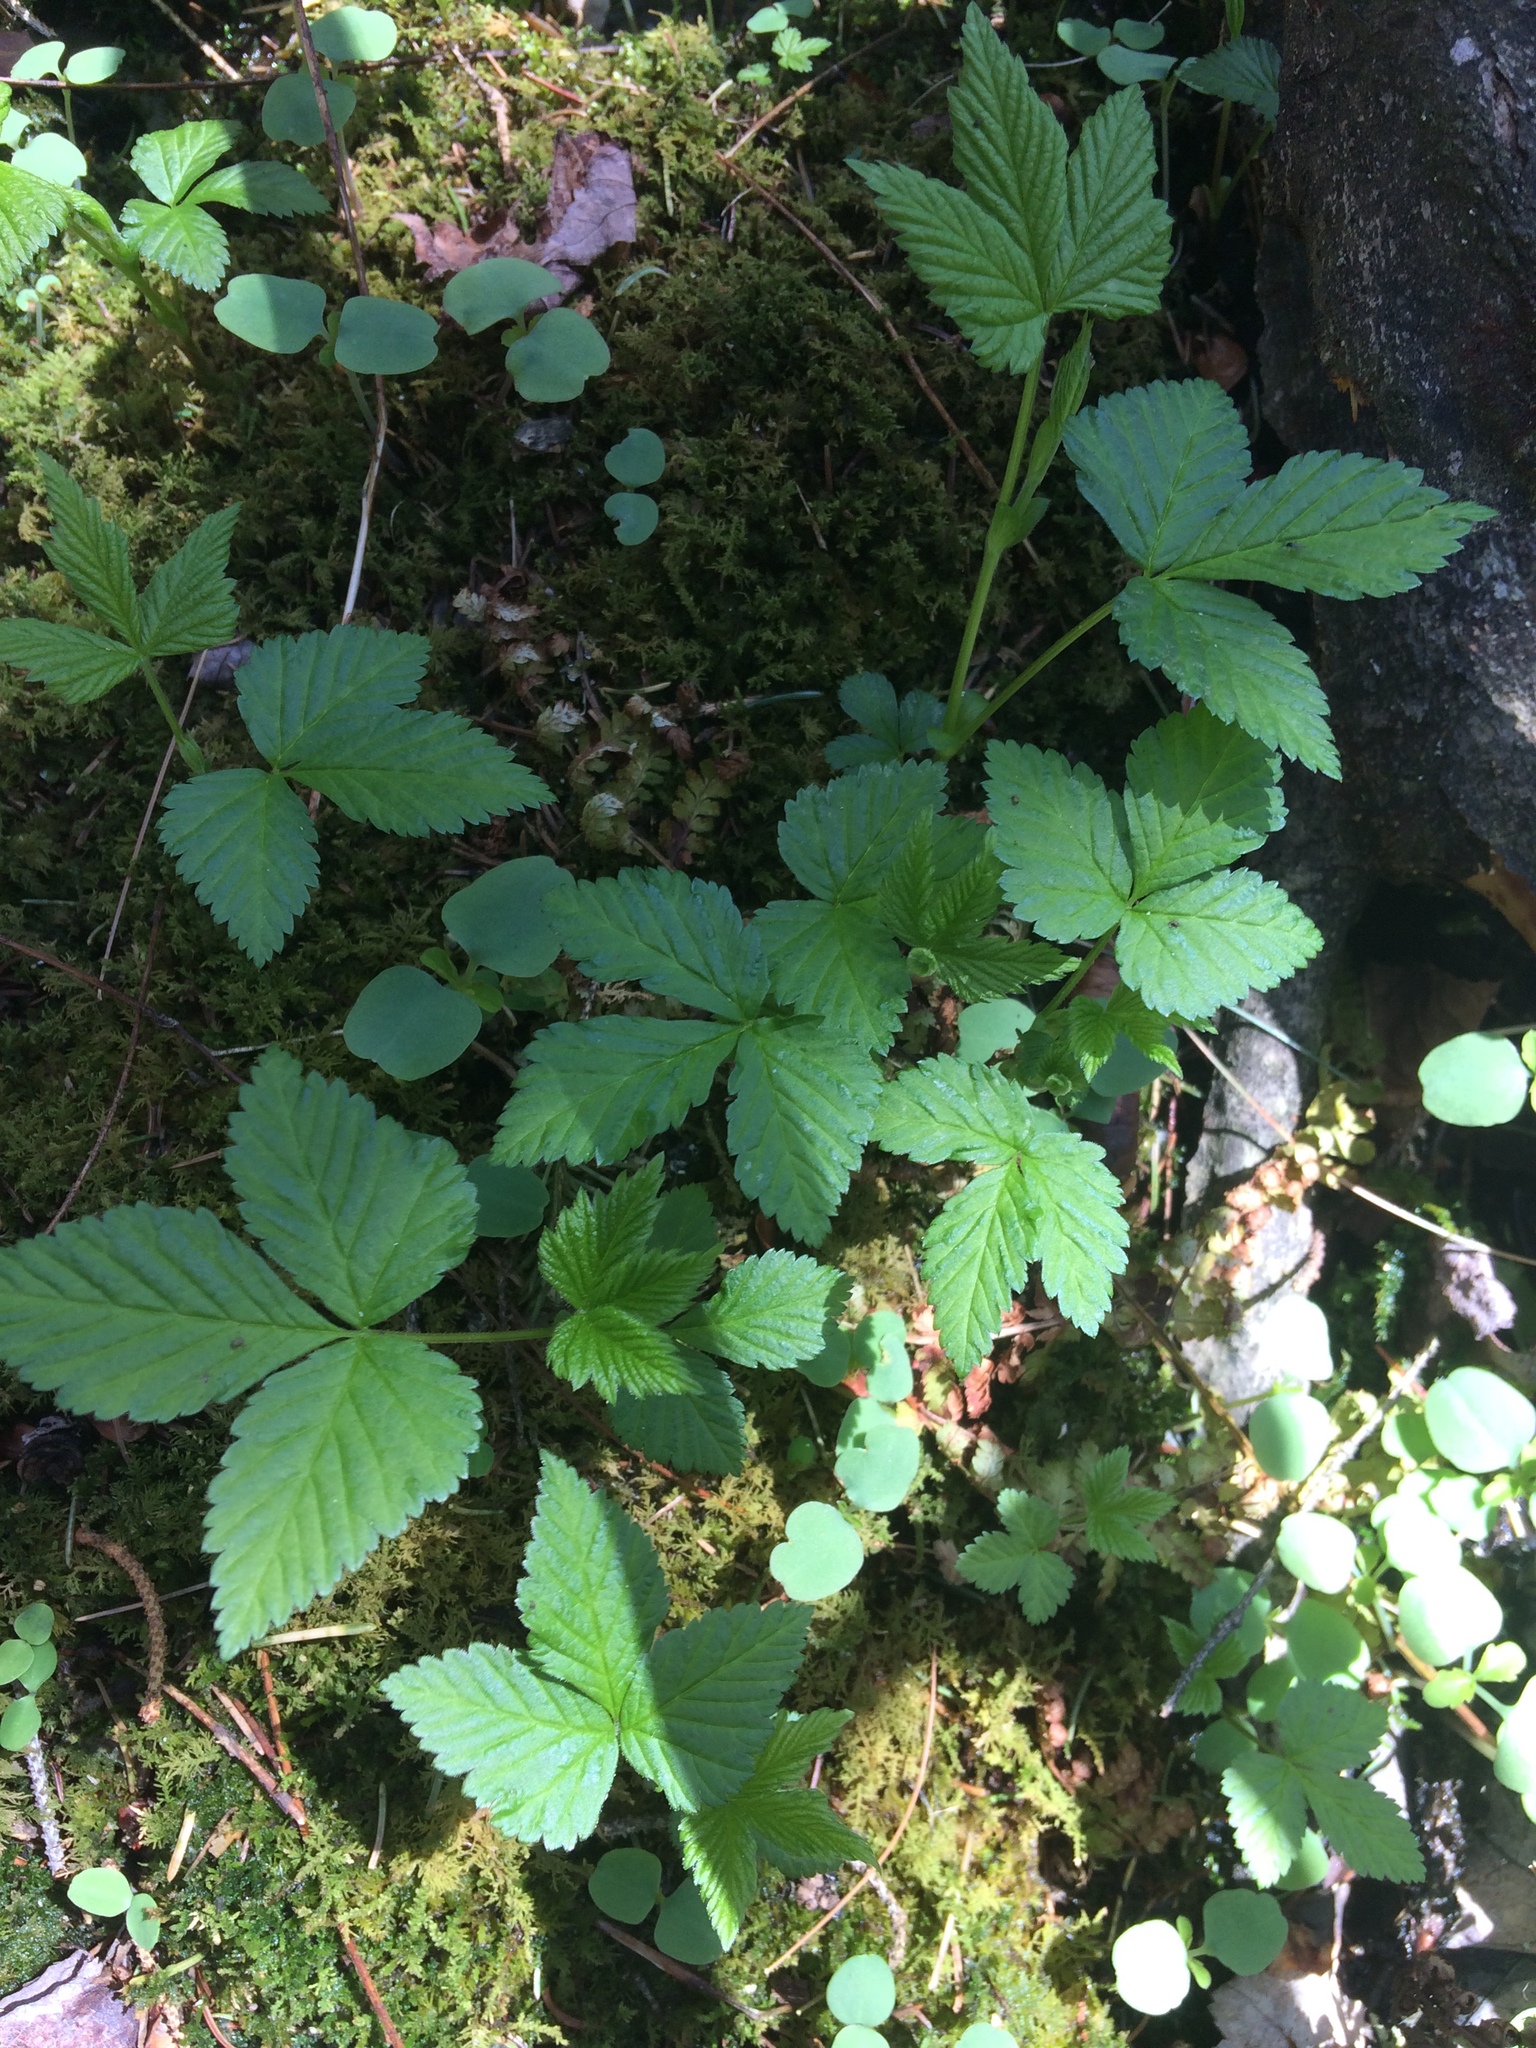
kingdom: Plantae
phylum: Tracheophyta
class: Magnoliopsida
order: Rosales
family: Rosaceae
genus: Rubus
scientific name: Rubus pubescens
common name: Dwarf raspberry
